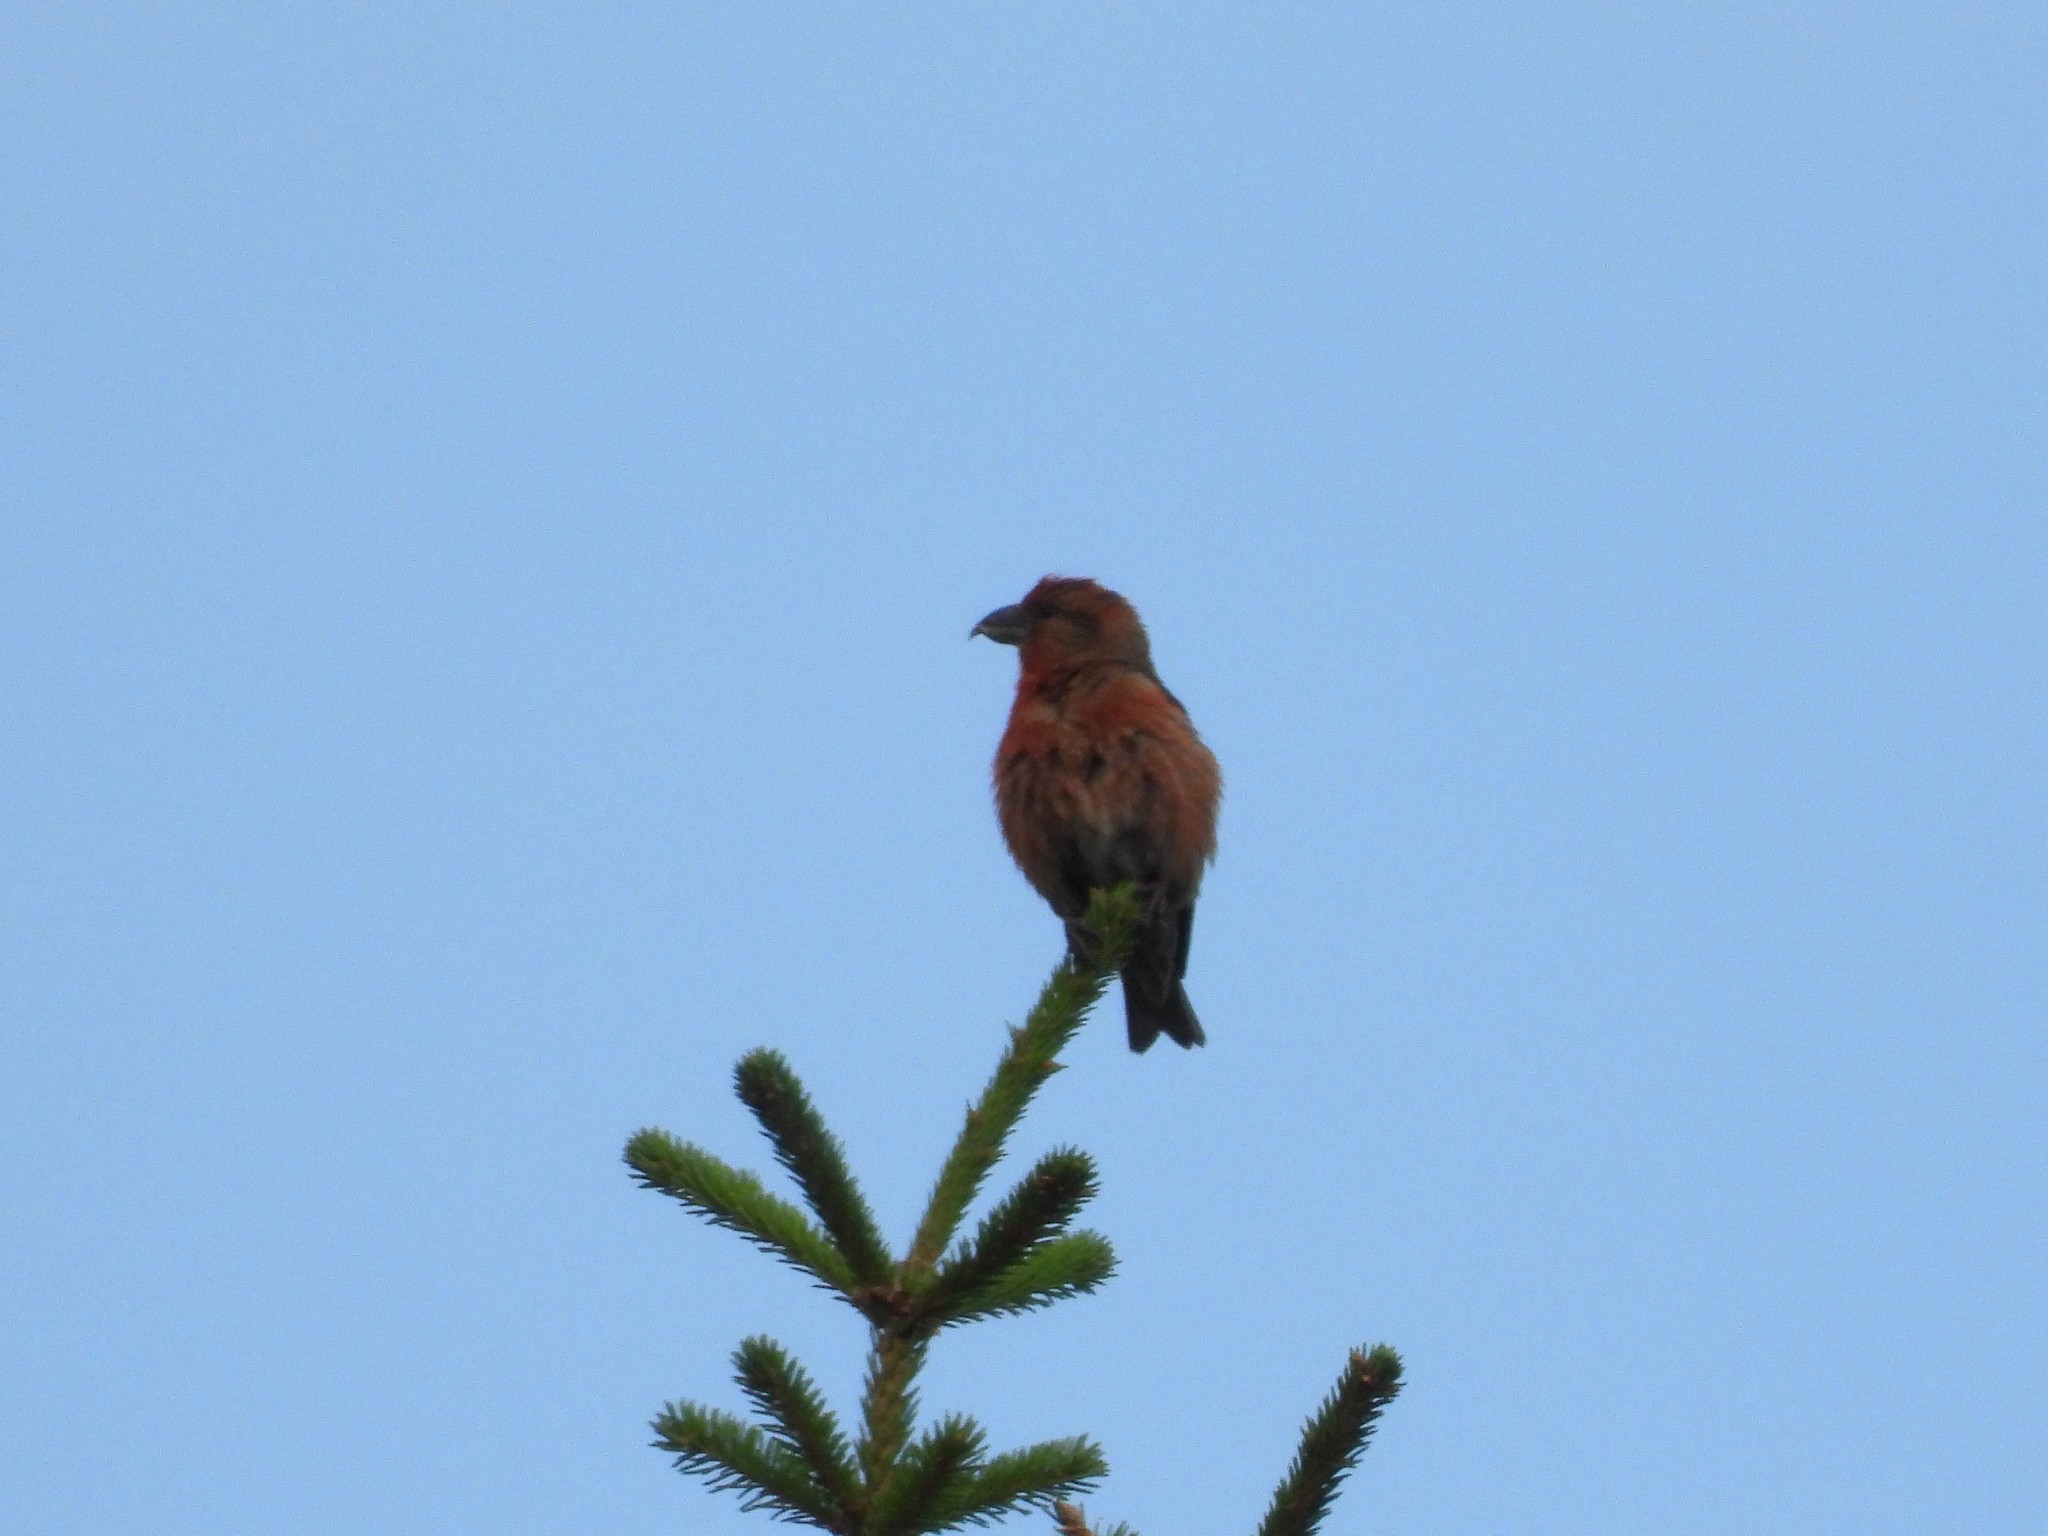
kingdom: Animalia
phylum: Chordata
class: Aves
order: Passeriformes
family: Fringillidae
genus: Loxia
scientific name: Loxia curvirostra
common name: Red crossbill
